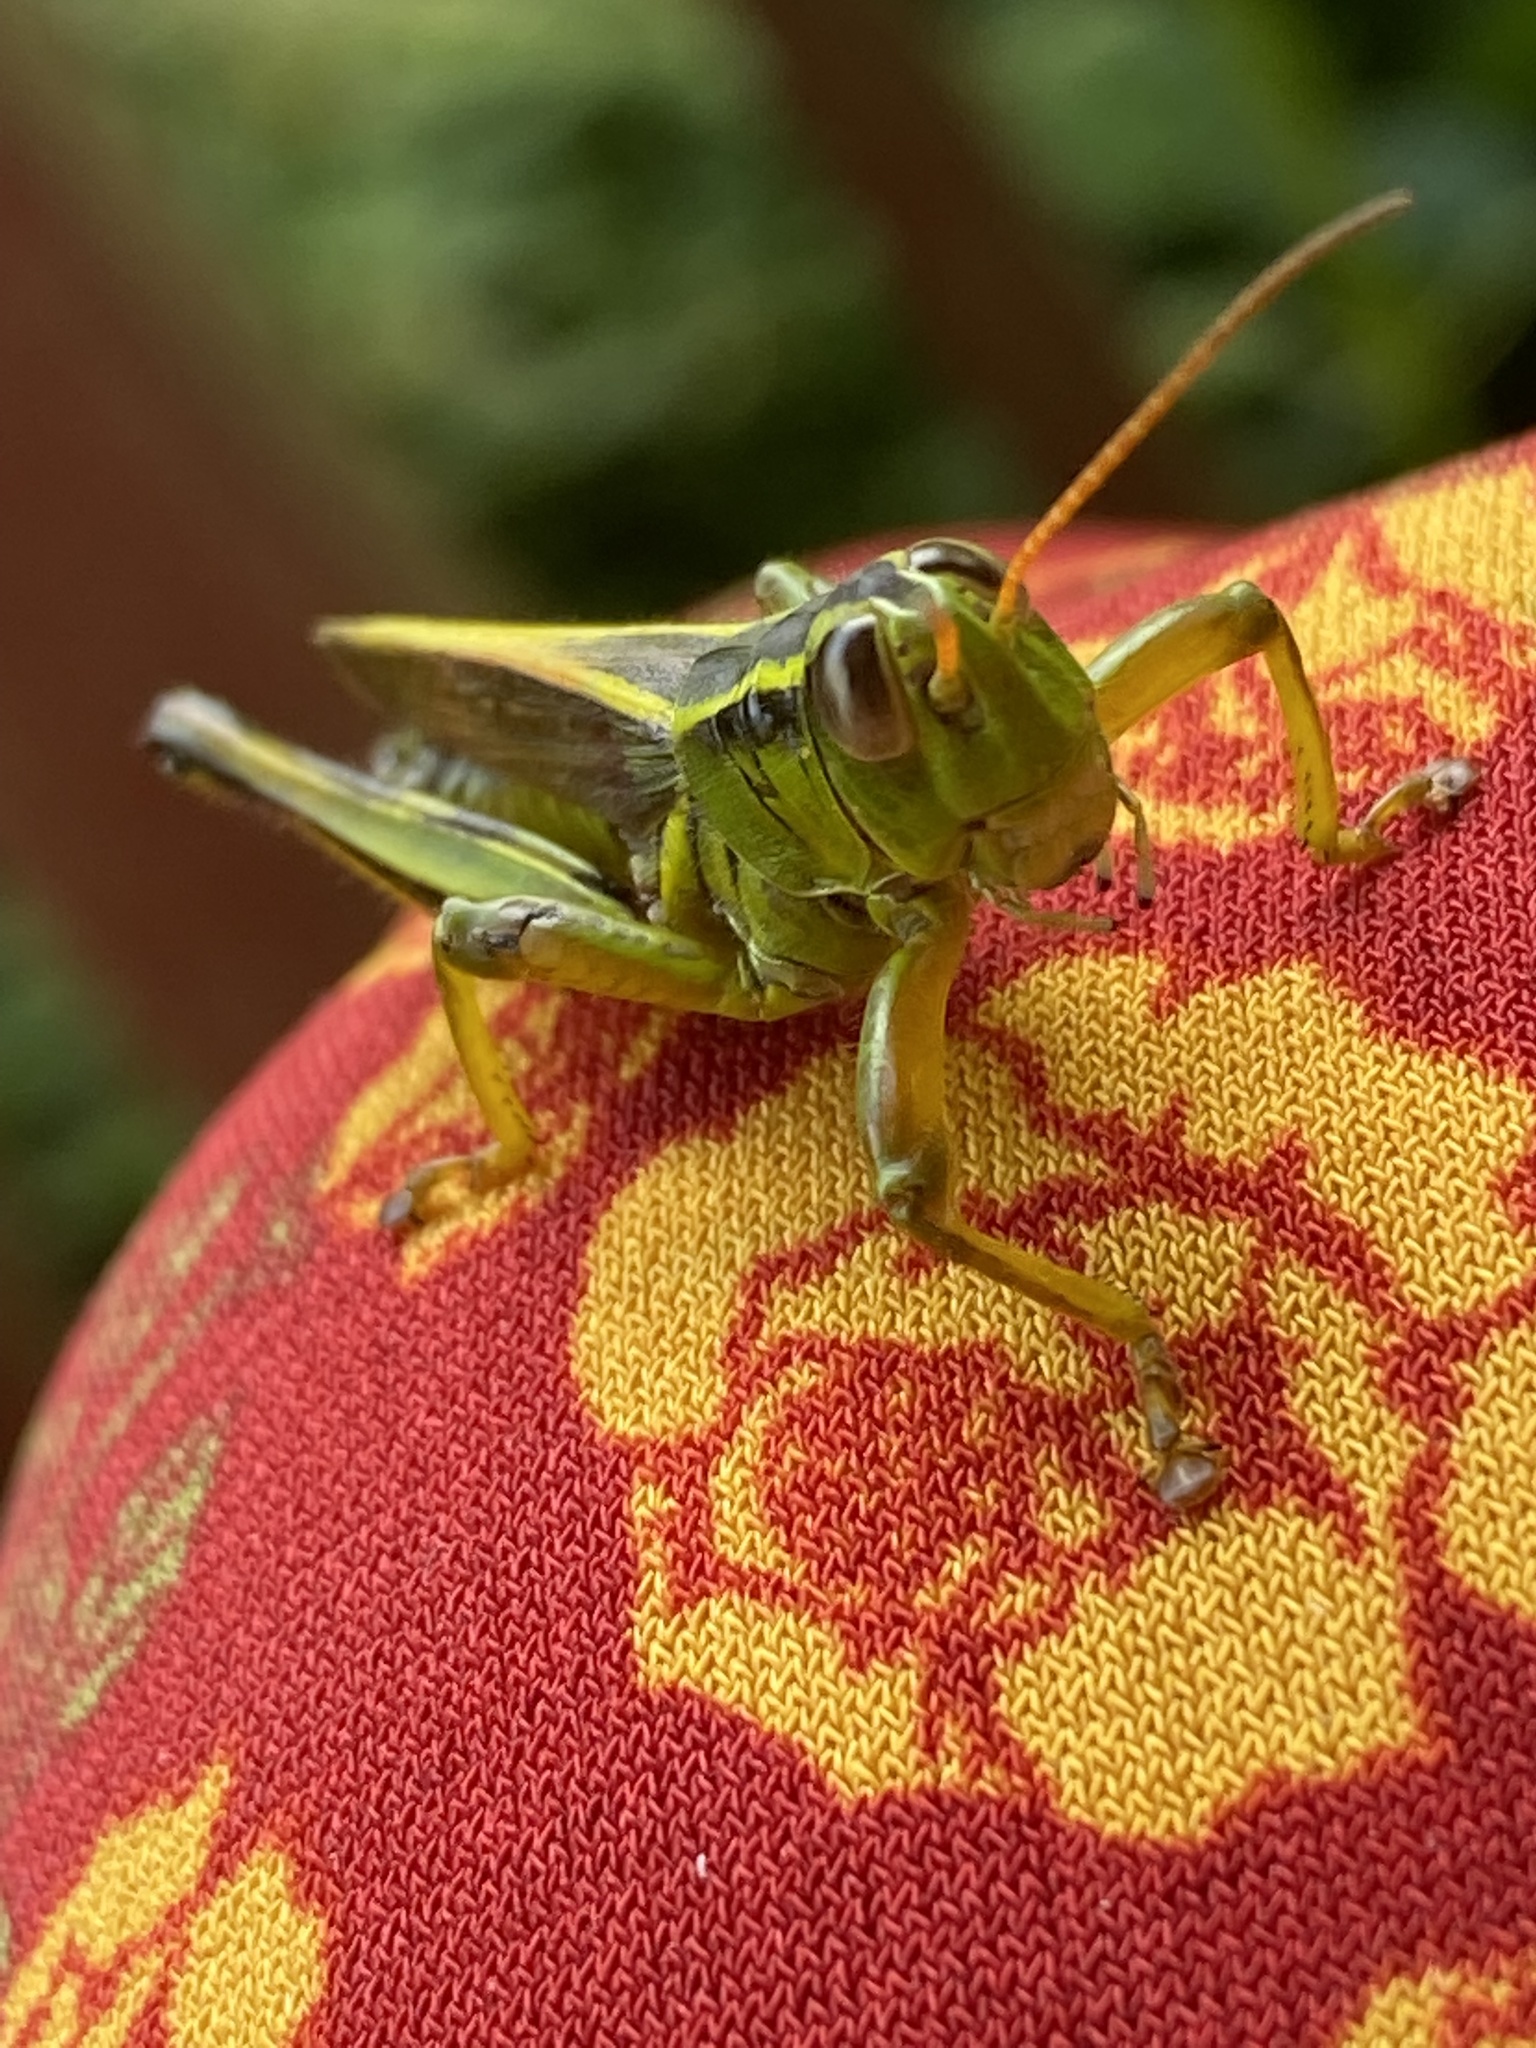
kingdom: Animalia
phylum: Arthropoda
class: Insecta
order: Orthoptera
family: Acrididae
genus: Melanoplus
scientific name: Melanoplus bivittatus
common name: Two-striped grasshopper
